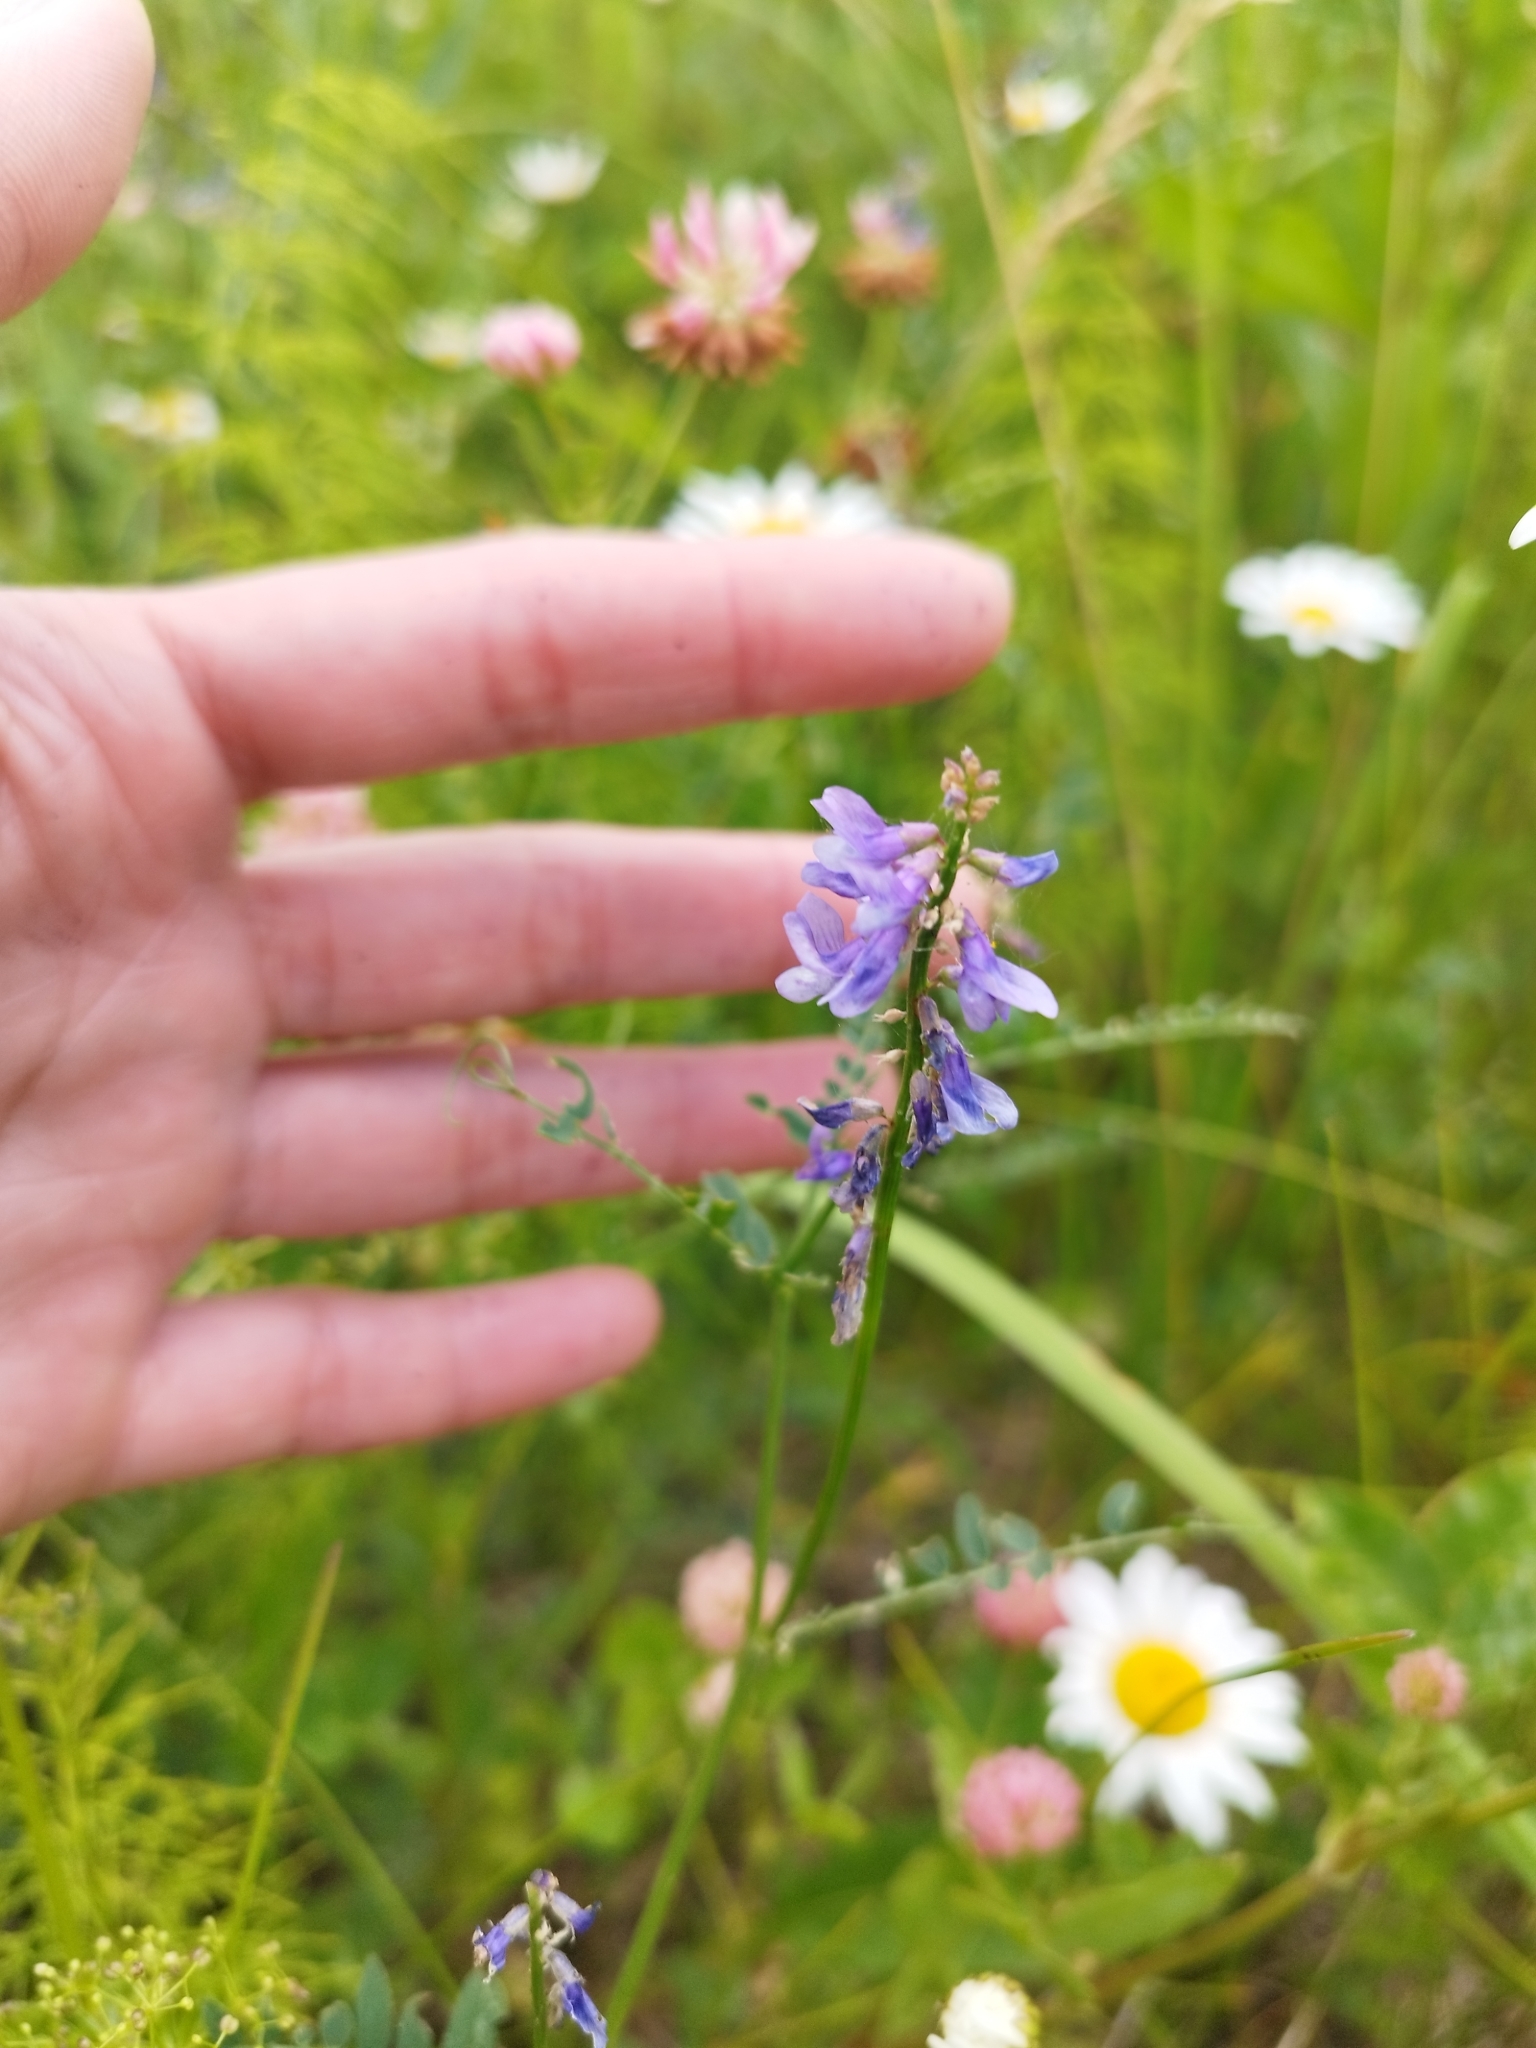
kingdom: Plantae
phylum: Tracheophyta
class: Magnoliopsida
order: Fabales
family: Fabaceae
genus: Vicia
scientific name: Vicia cracca
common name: Bird vetch
